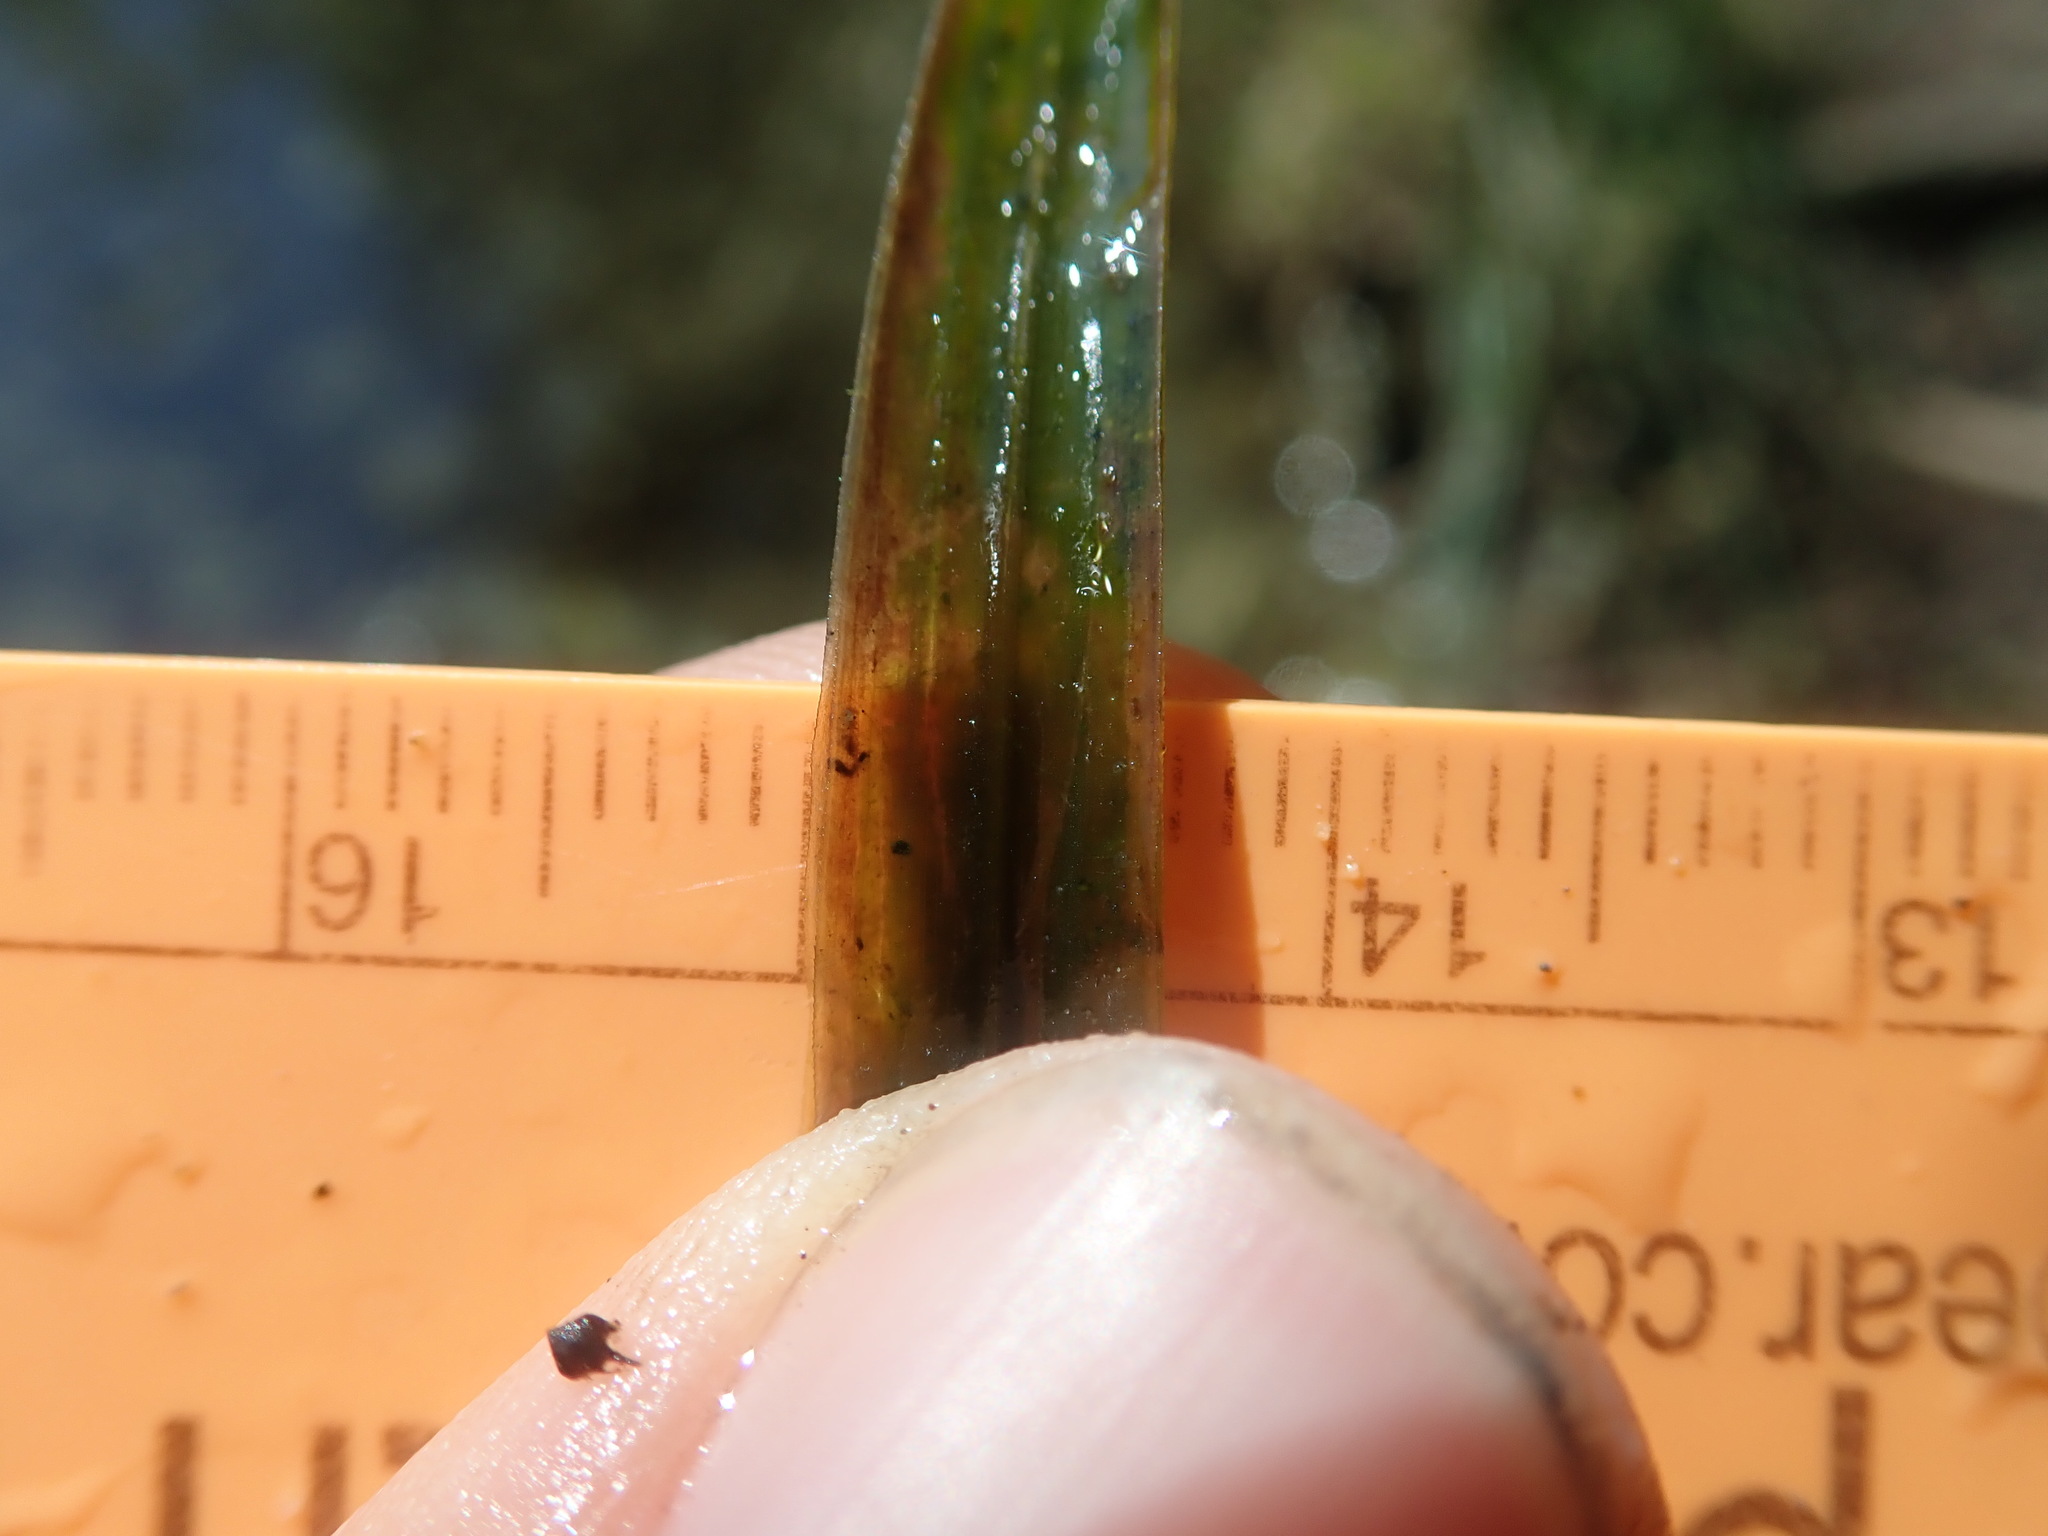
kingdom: Plantae
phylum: Tracheophyta
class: Liliopsida
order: Alismatales
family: Potamogetonaceae
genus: Potamogeton
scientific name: Potamogeton robbinsii
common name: Fern pondweed
